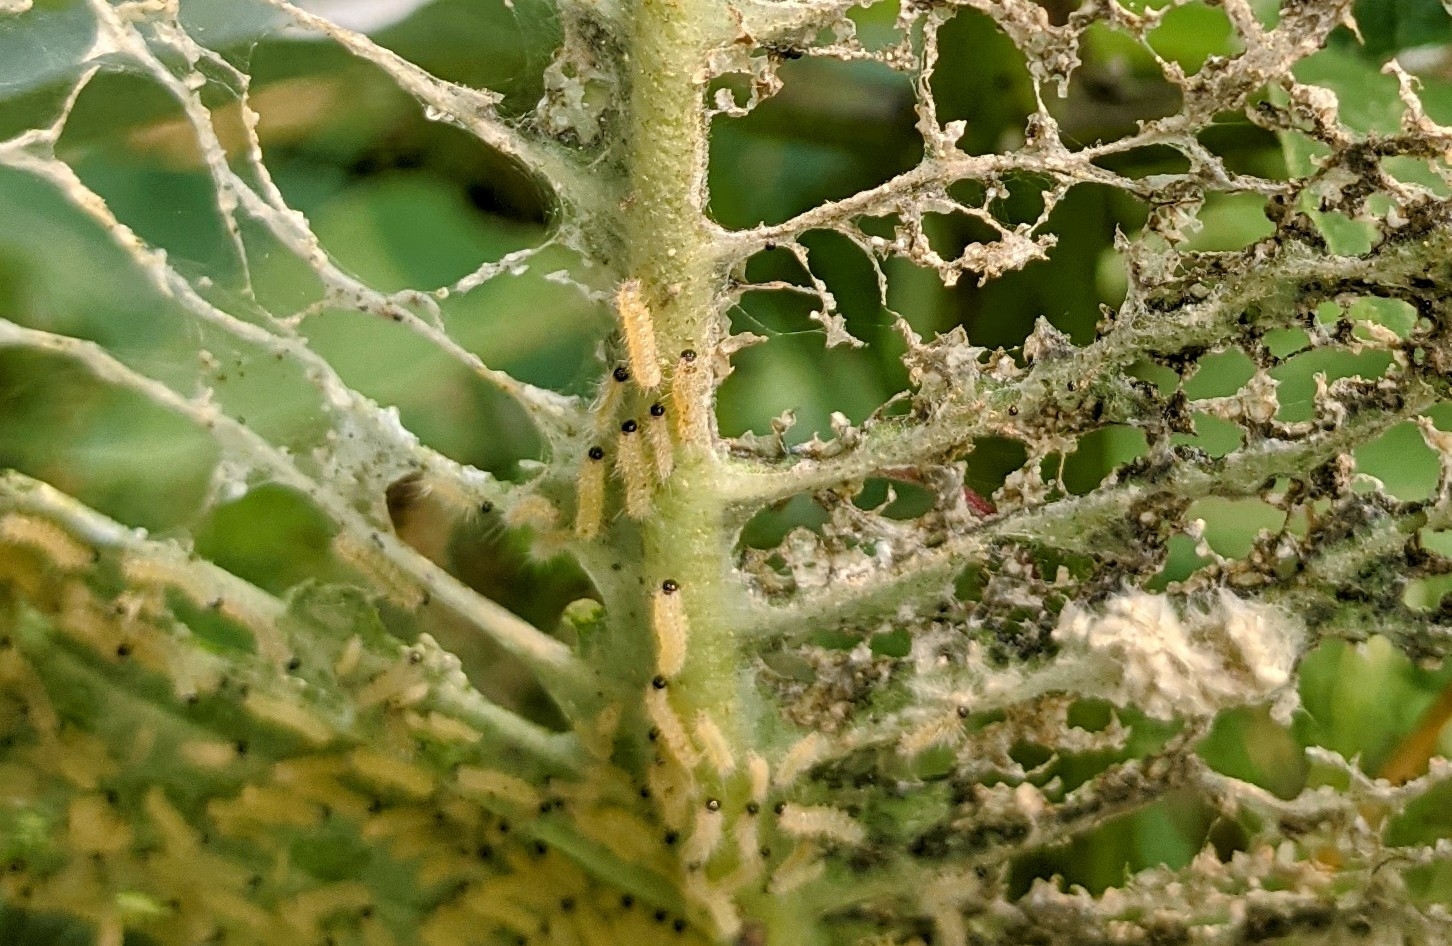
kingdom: Animalia
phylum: Arthropoda
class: Insecta
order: Lepidoptera
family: Erebidae
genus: Euchaetes
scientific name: Euchaetes egle
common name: Milkweed tussock moth
